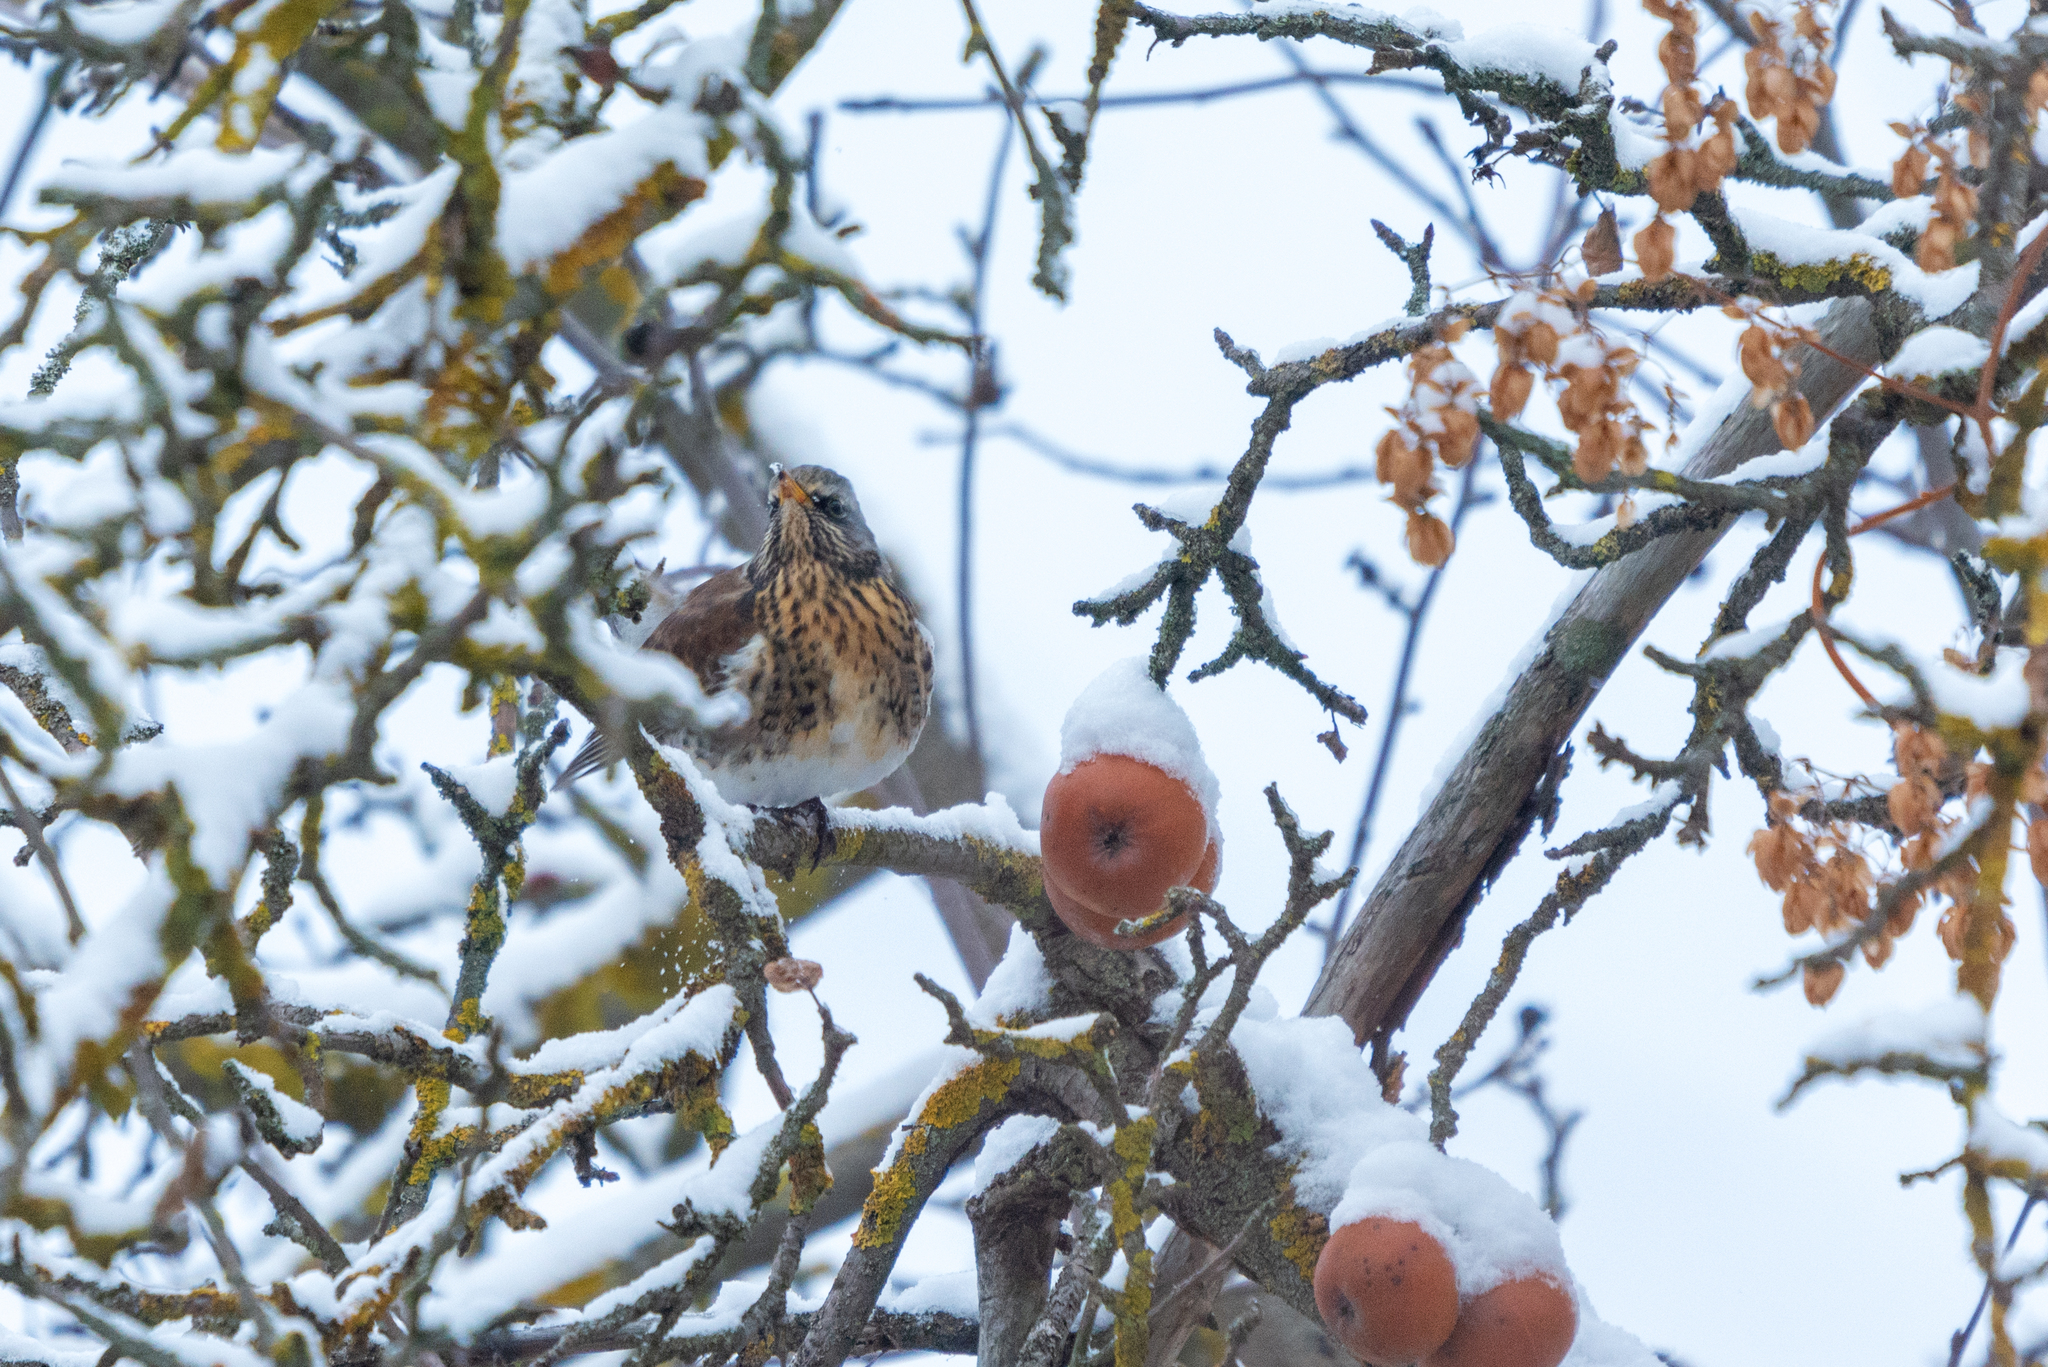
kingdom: Animalia
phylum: Chordata
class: Aves
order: Passeriformes
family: Turdidae
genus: Turdus
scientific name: Turdus pilaris
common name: Fieldfare
